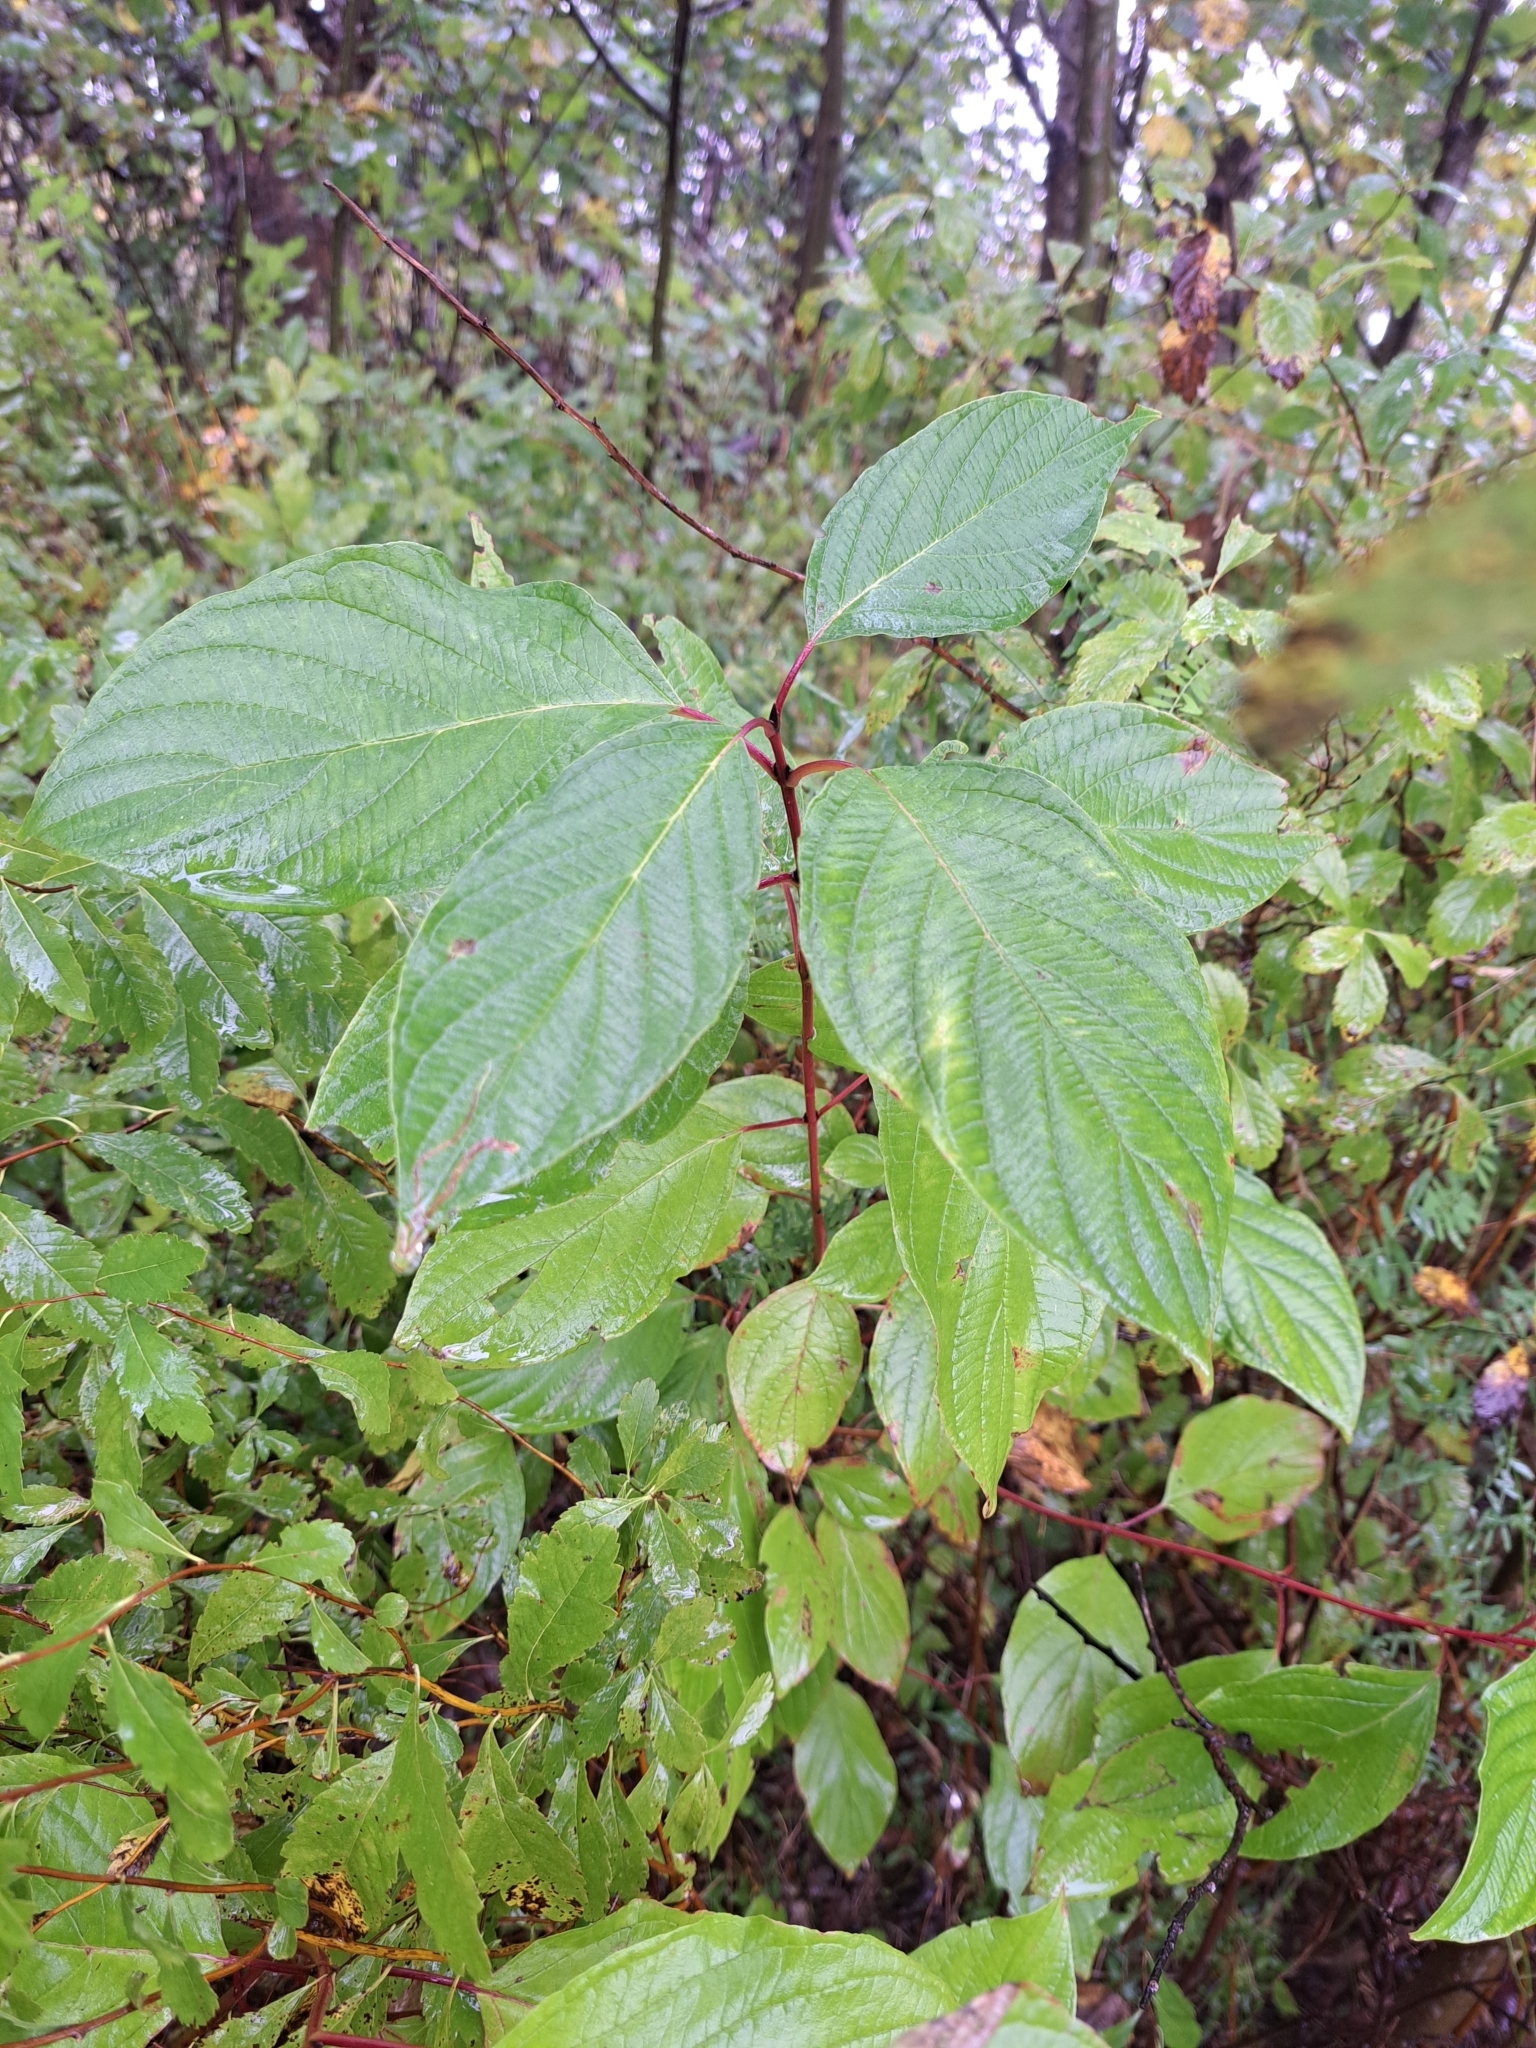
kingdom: Plantae
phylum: Tracheophyta
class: Magnoliopsida
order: Cornales
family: Cornaceae
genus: Cornus
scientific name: Cornus sericea
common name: Red-osier dogwood
